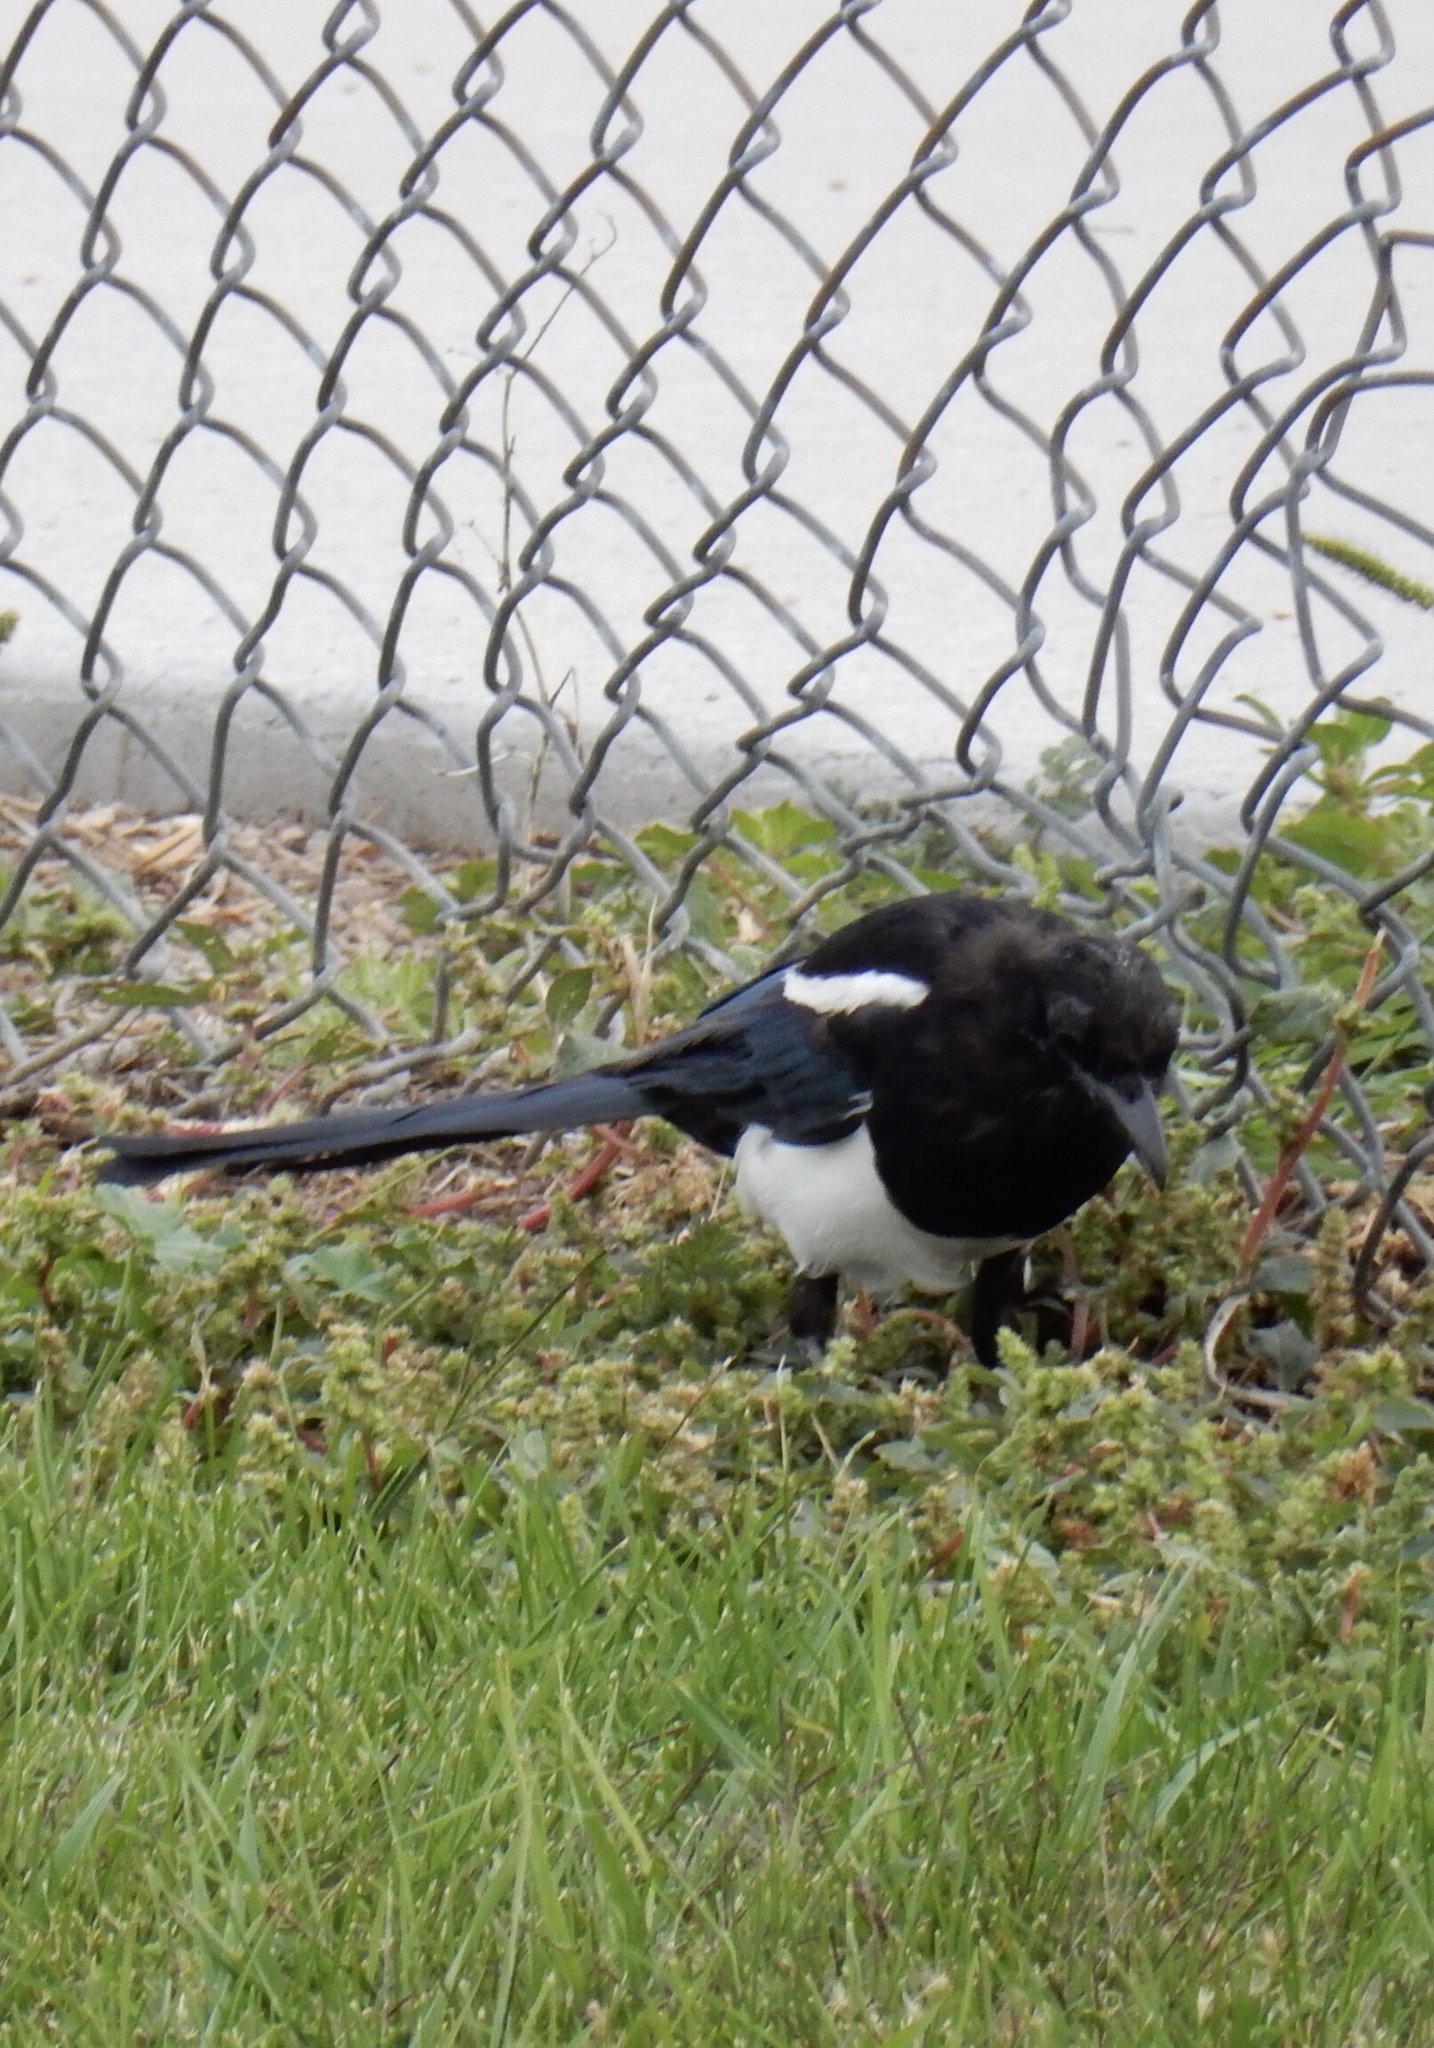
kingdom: Animalia
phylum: Chordata
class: Aves
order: Passeriformes
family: Corvidae
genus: Pica
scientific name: Pica hudsonia
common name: Black-billed magpie
